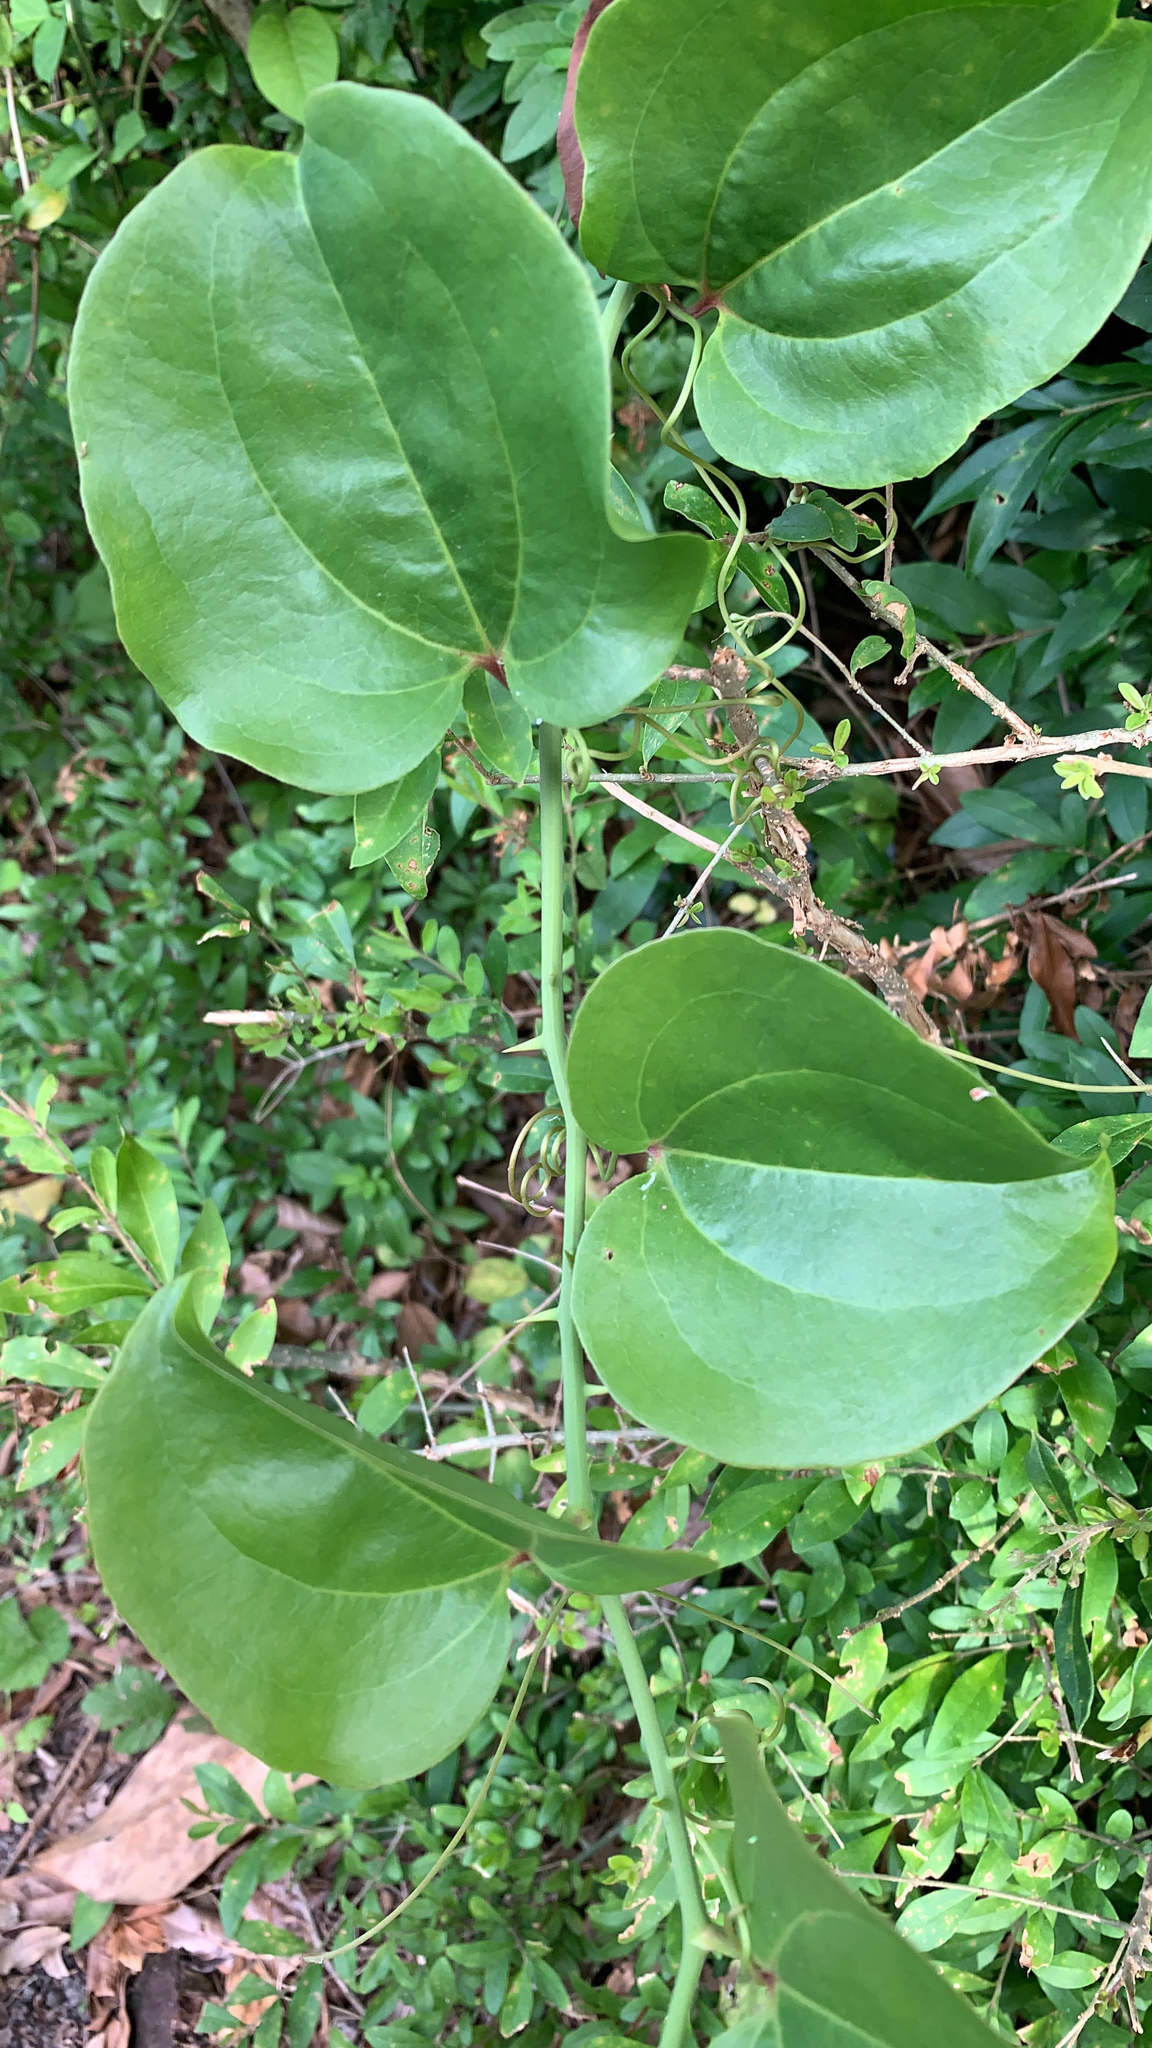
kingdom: Plantae
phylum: Tracheophyta
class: Liliopsida
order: Liliales
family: Smilacaceae
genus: Smilax
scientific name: Smilax rotundifolia
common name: Bullbriar
